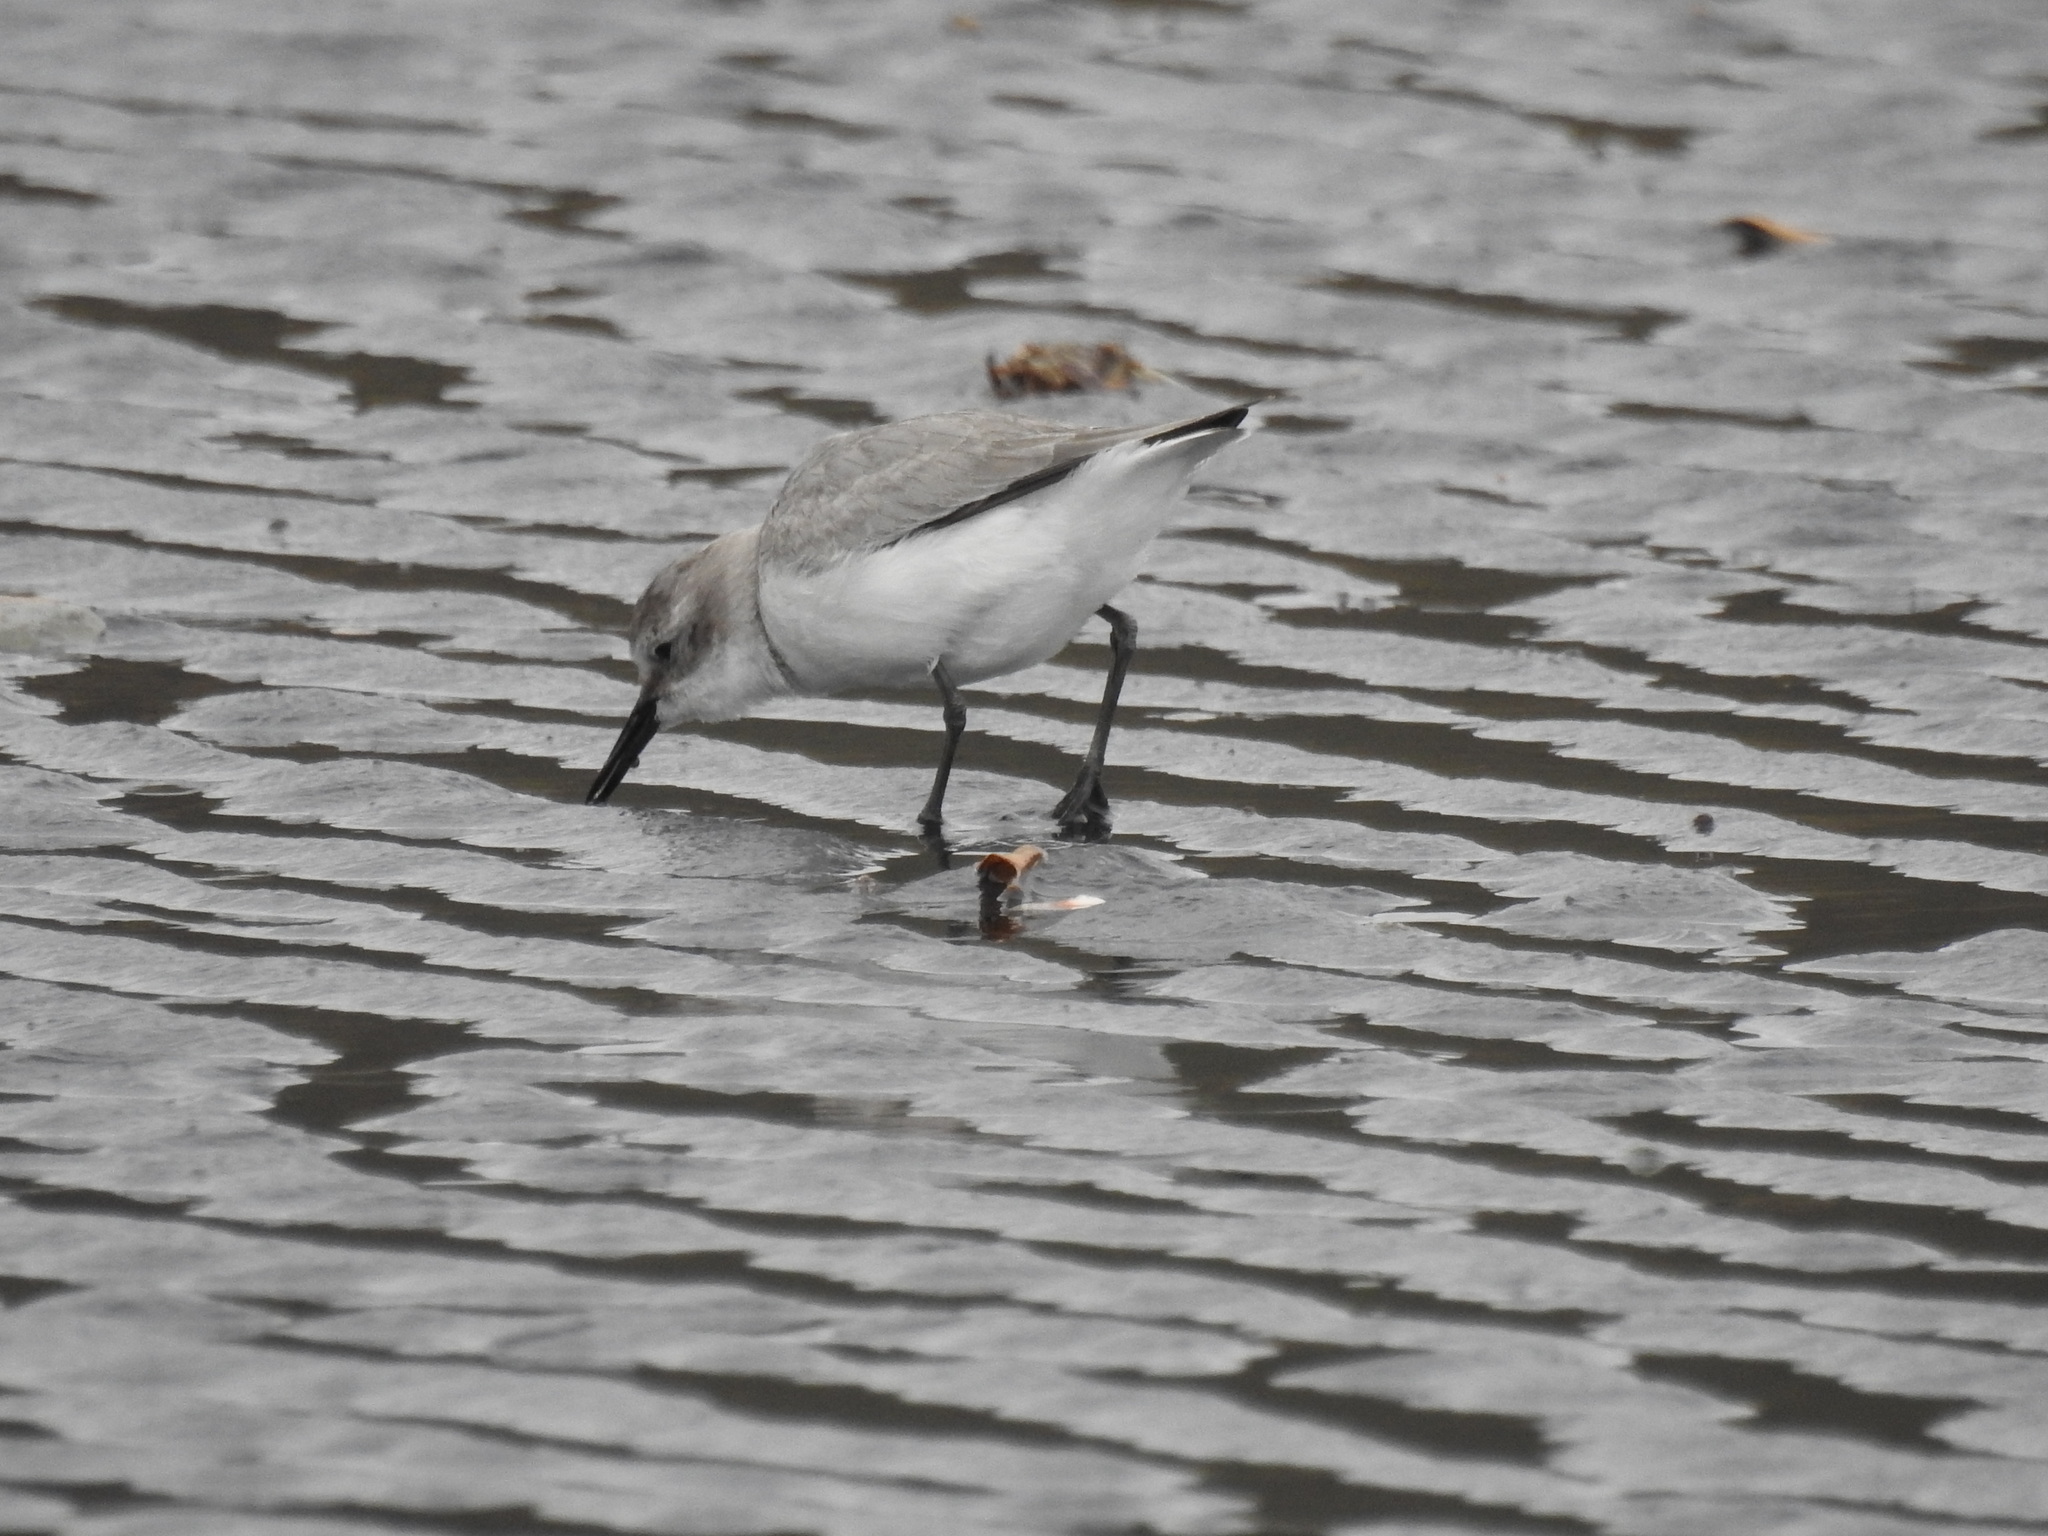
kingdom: Animalia
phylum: Chordata
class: Aves
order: Charadriiformes
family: Charadriidae
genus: Anarhynchus
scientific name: Anarhynchus frontalis
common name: Wrybill
